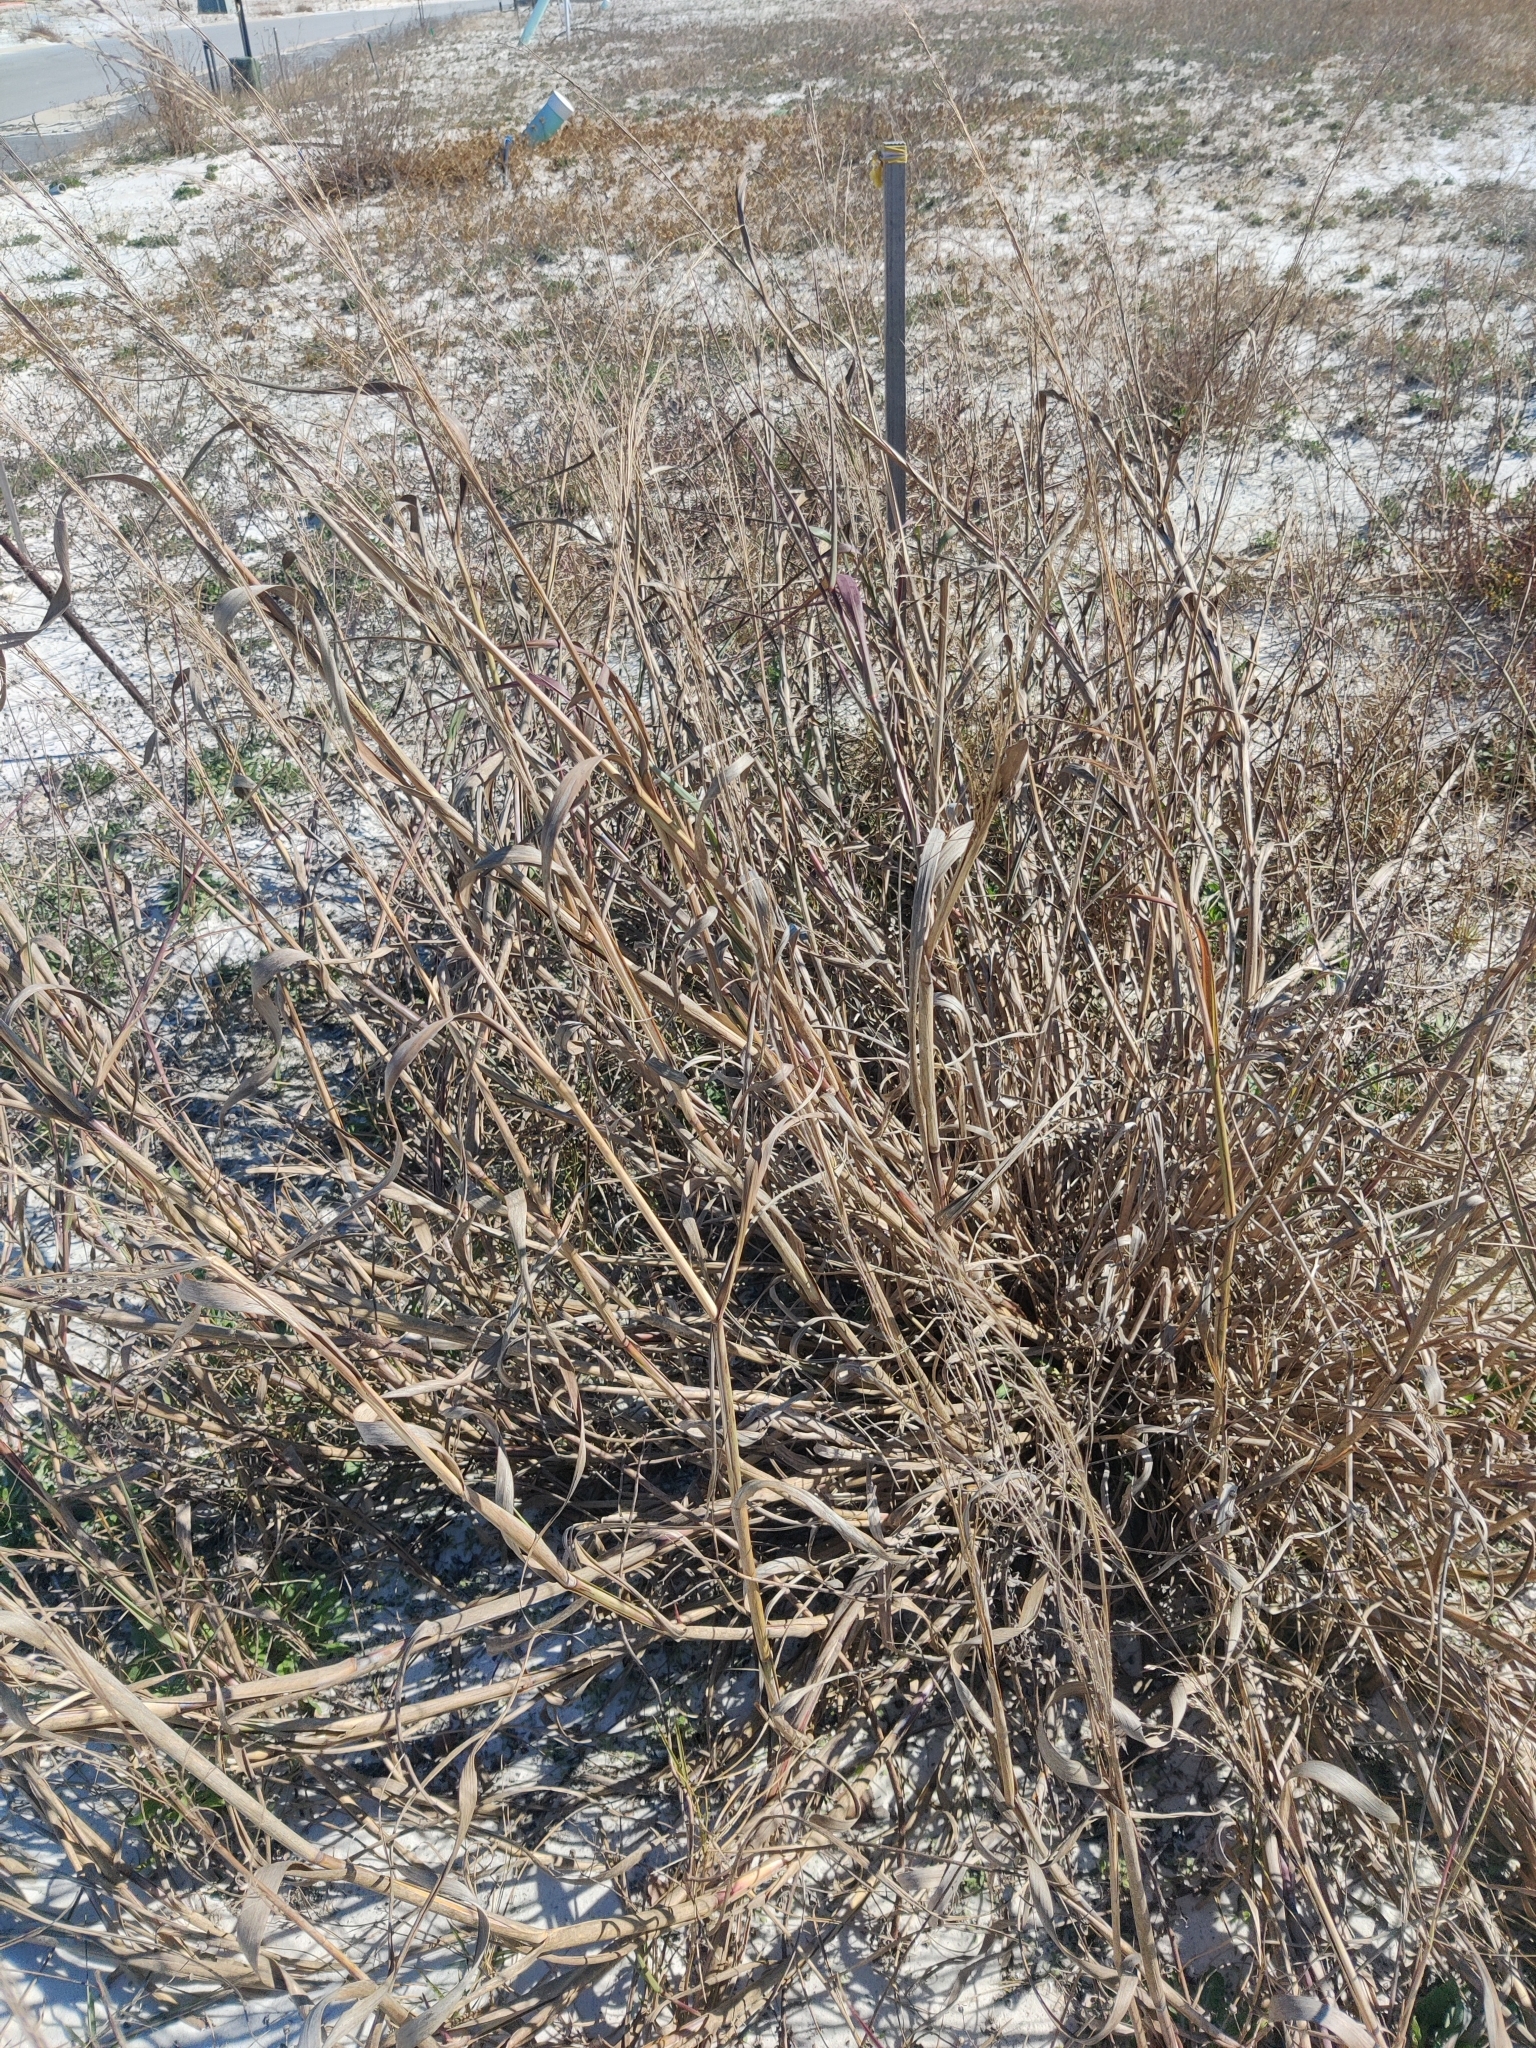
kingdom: Plantae
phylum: Tracheophyta
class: Liliopsida
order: Poales
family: Poaceae
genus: Panicum
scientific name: Panicum amarum
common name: Bitter panicum
